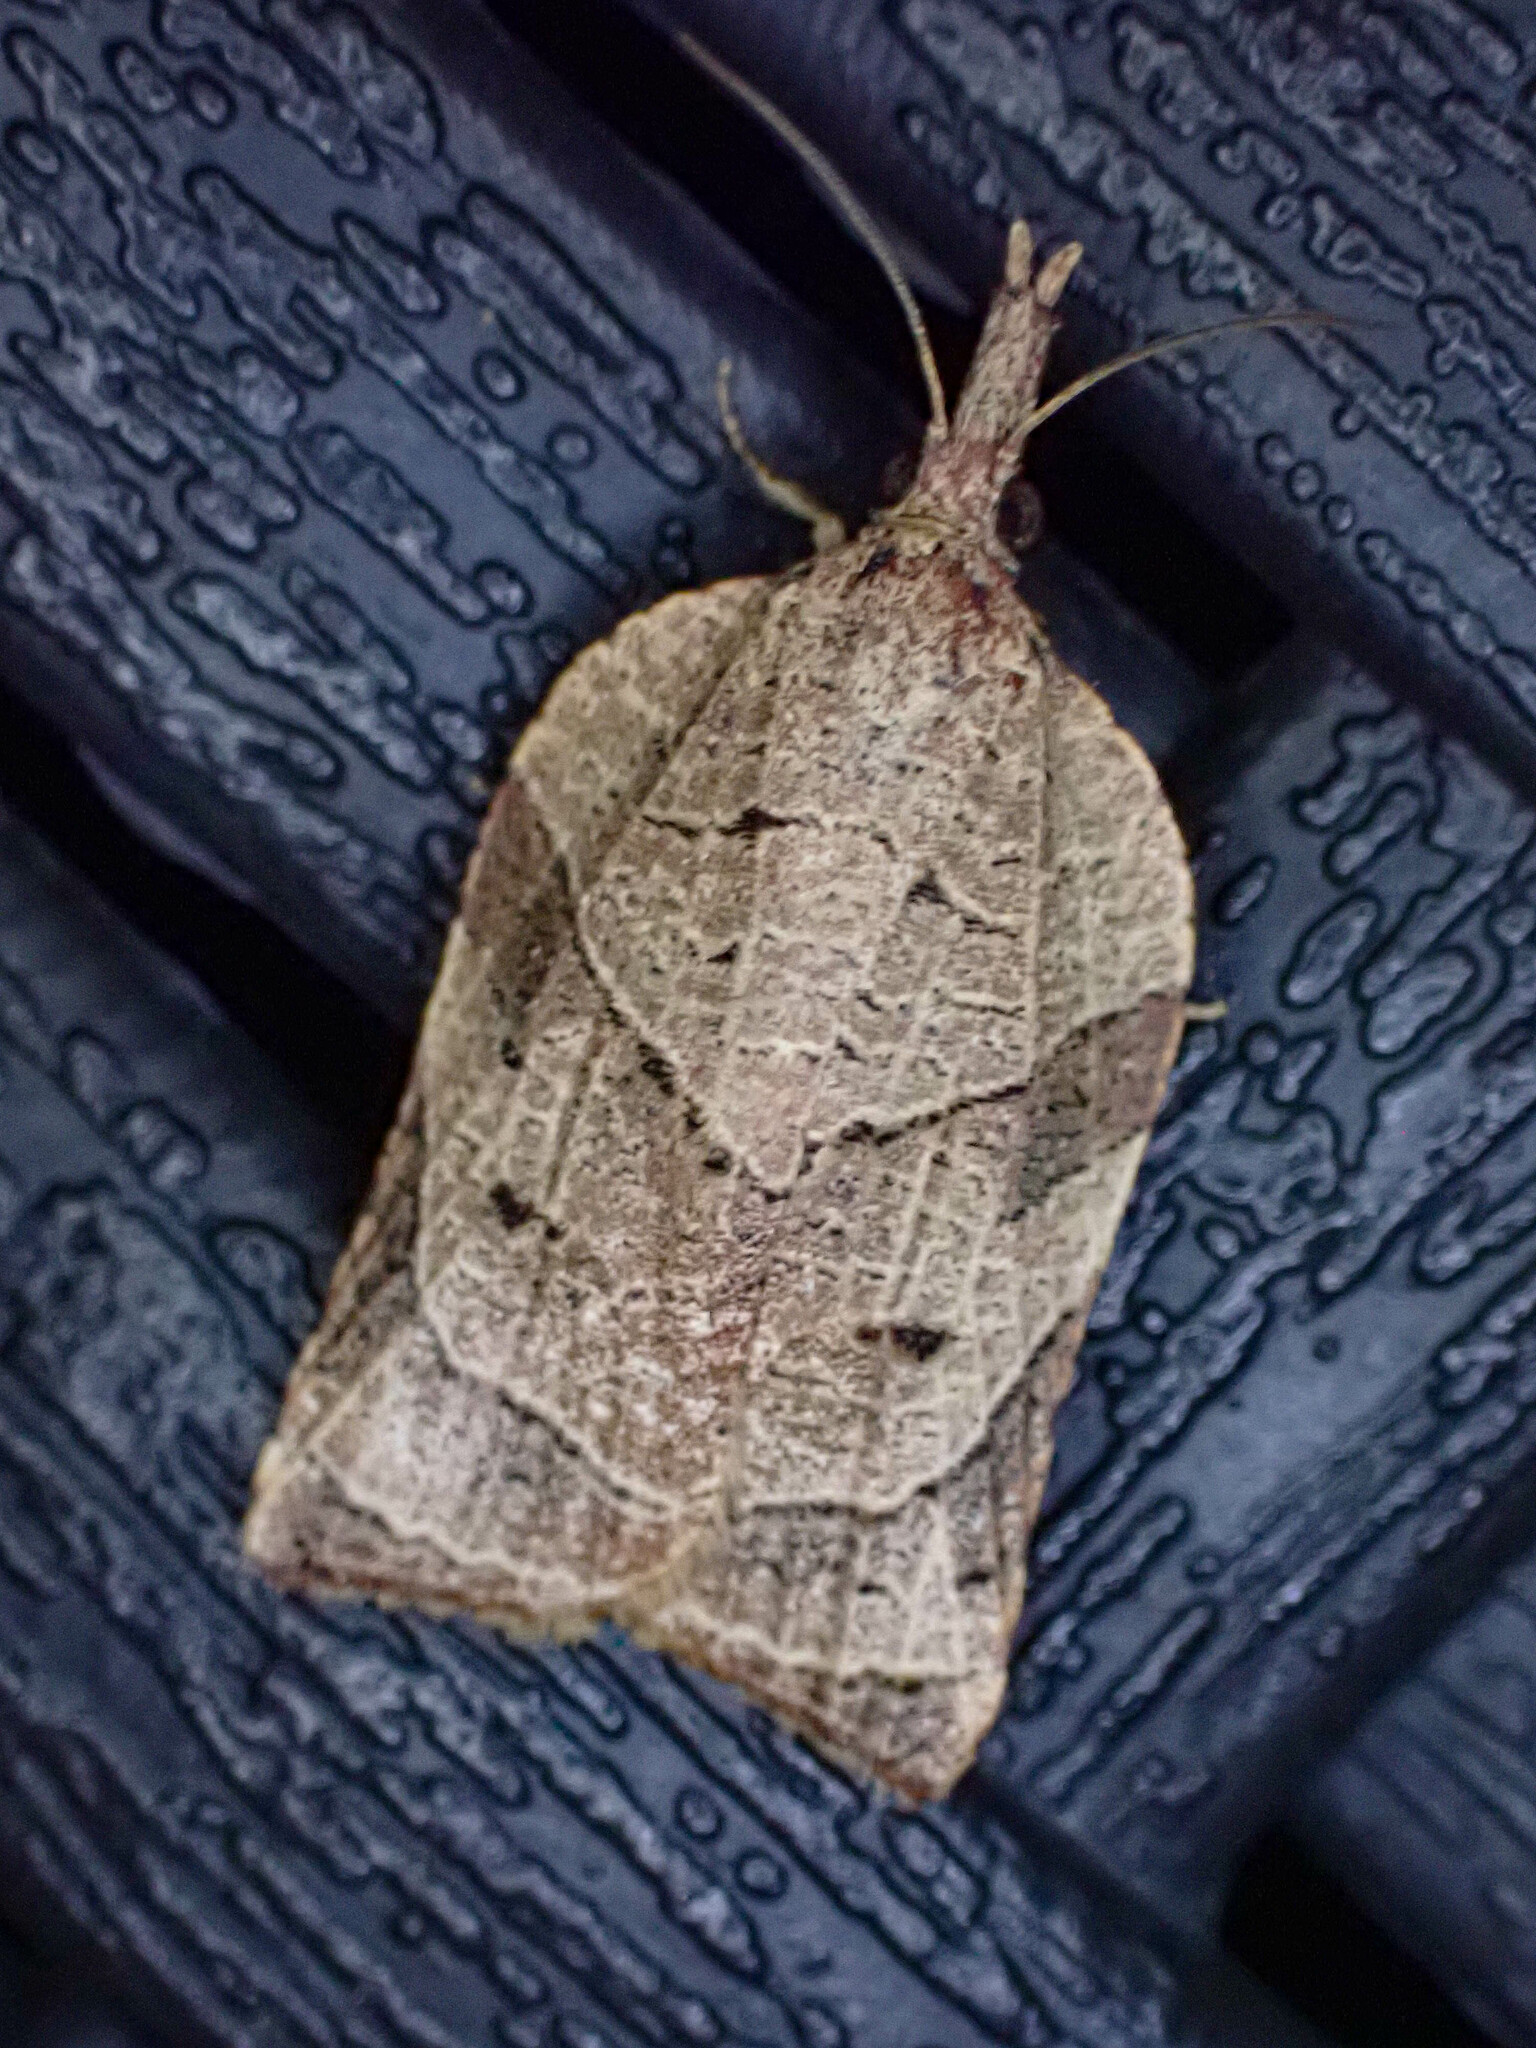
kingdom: Animalia
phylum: Arthropoda
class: Insecta
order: Lepidoptera
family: Tortricidae
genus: Platynota
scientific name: Platynota rostrana
